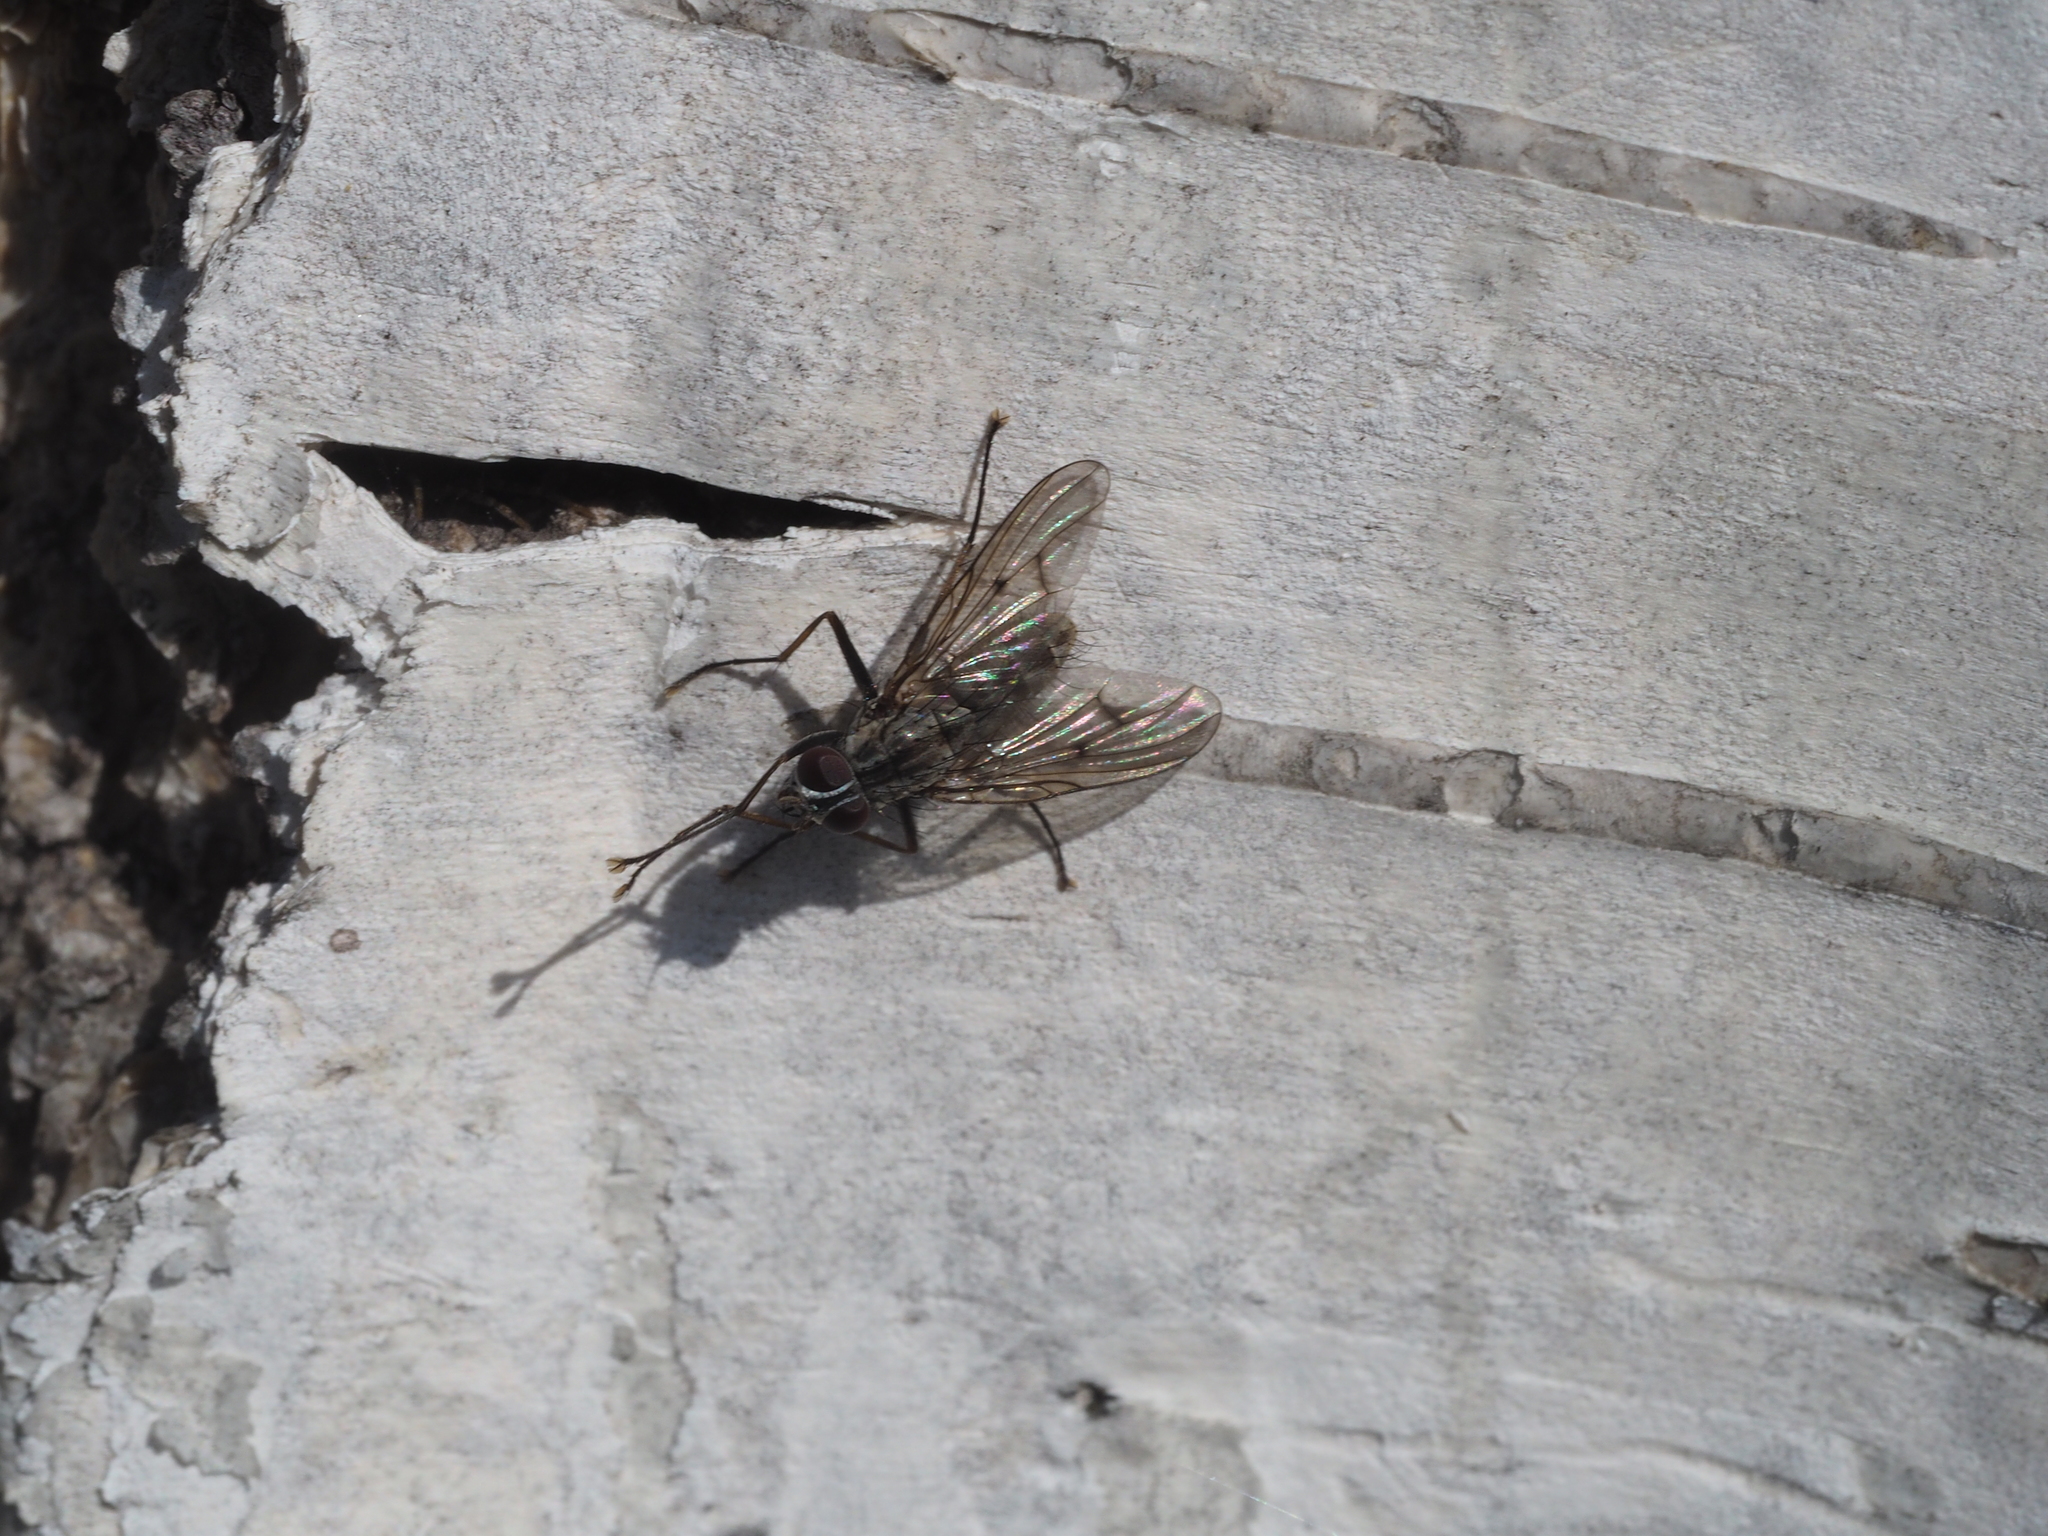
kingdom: Animalia
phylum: Arthropoda
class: Insecta
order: Diptera
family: Muscidae
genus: Phaonia
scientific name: Phaonia fuscata
